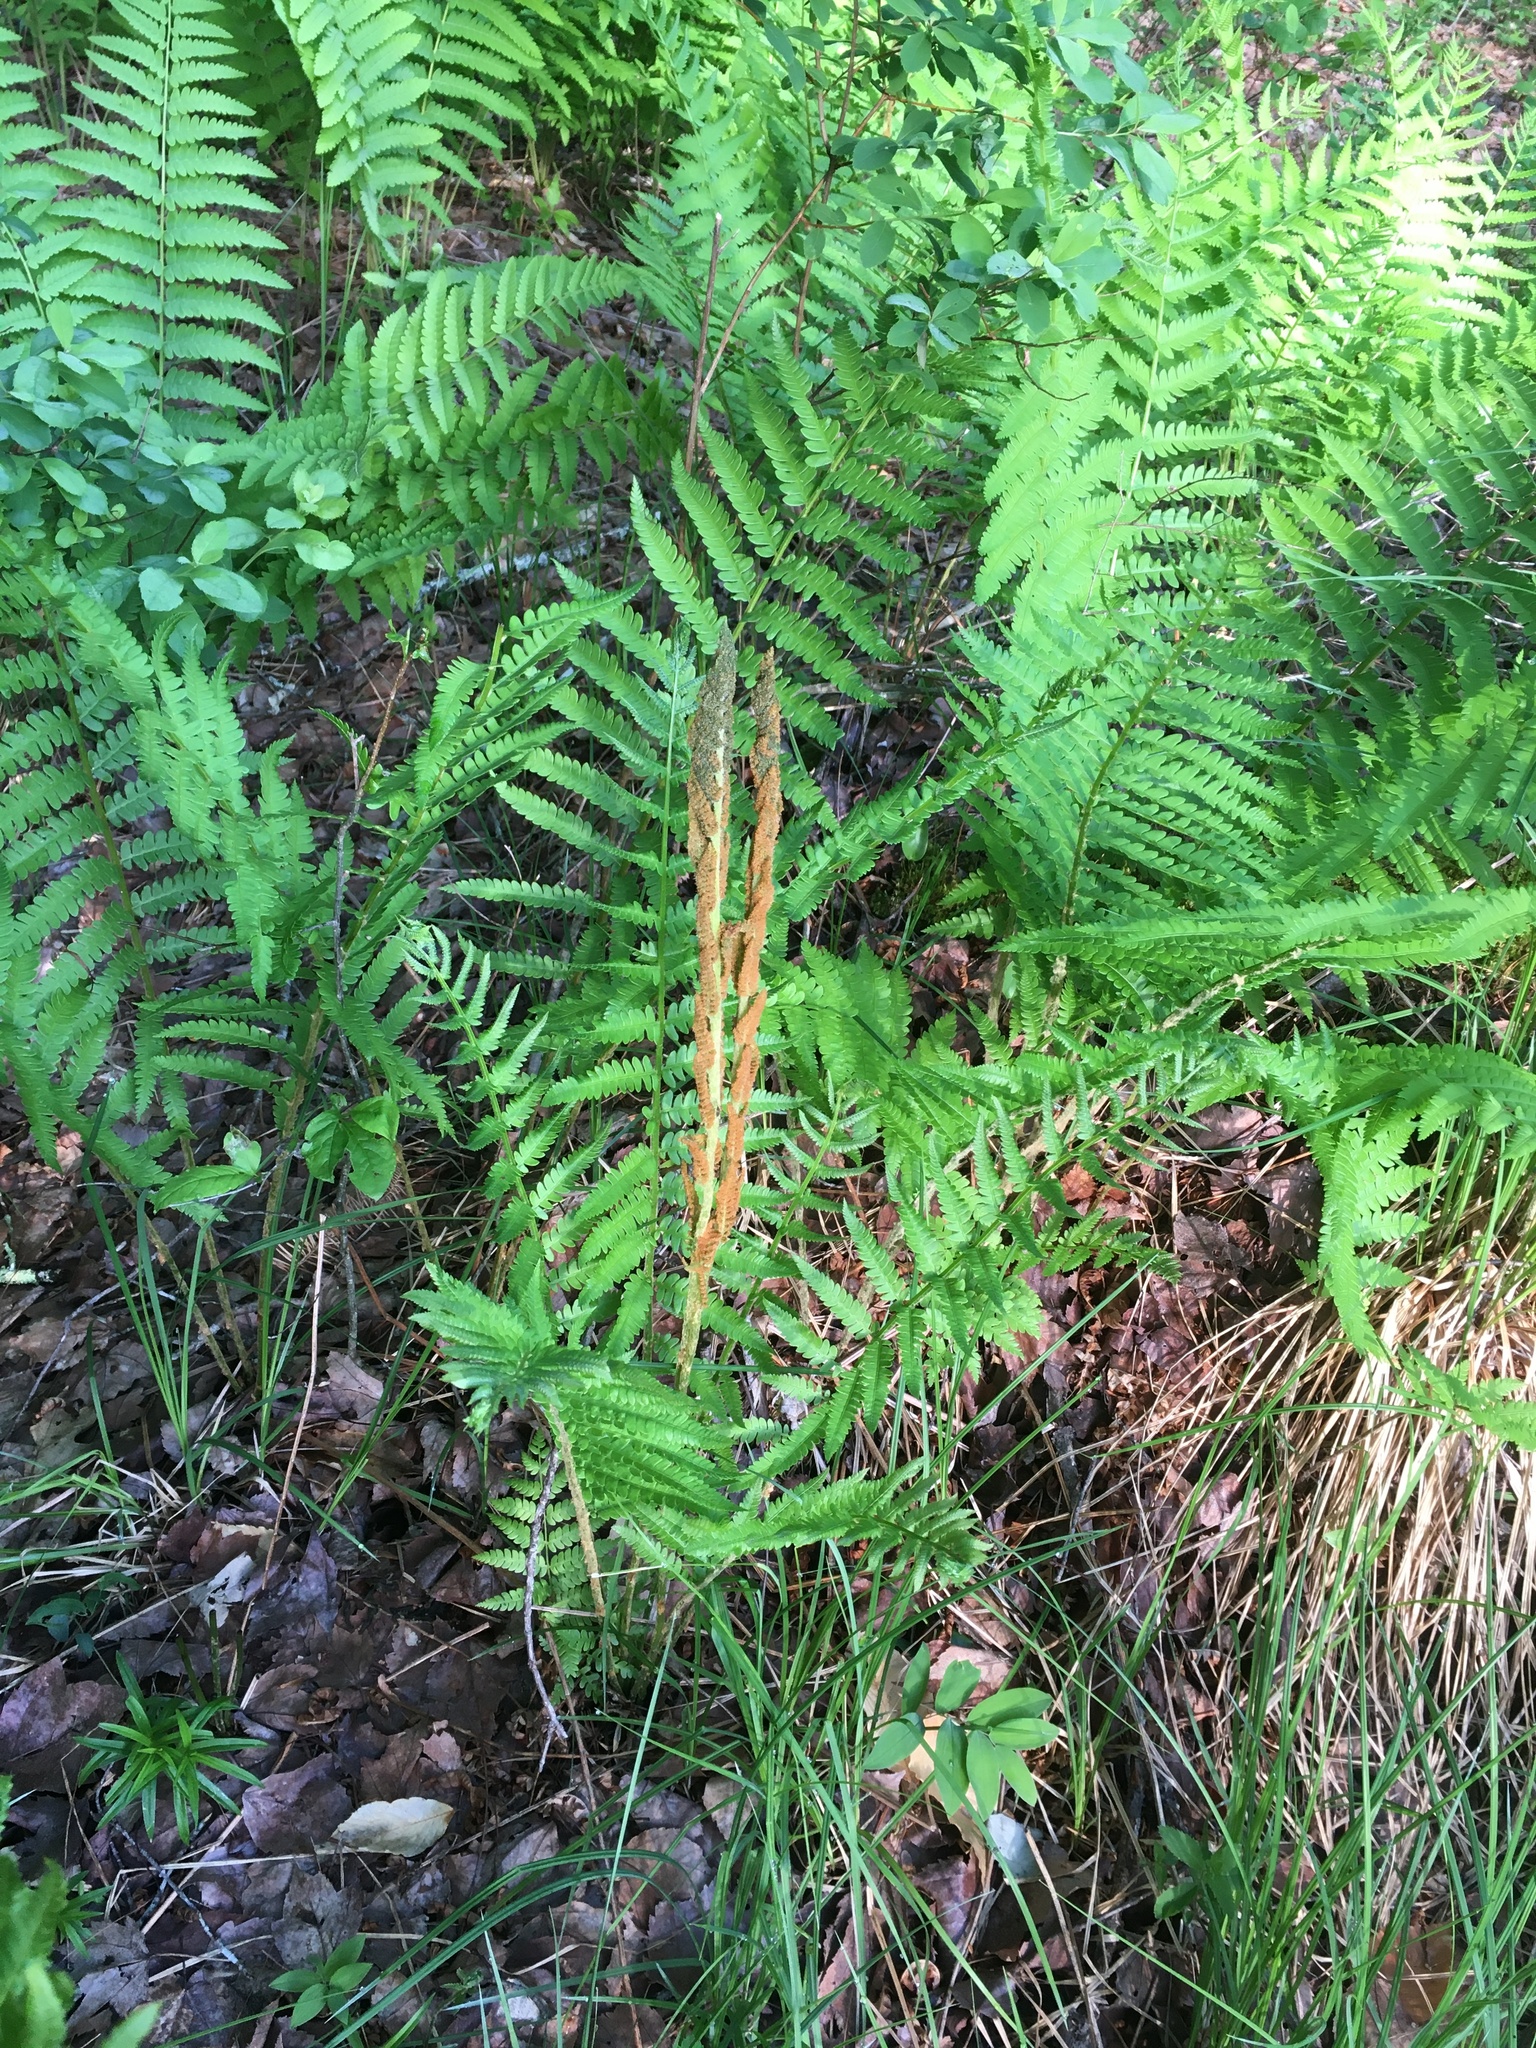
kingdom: Plantae
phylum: Tracheophyta
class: Polypodiopsida
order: Osmundales
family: Osmundaceae
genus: Osmundastrum
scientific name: Osmundastrum cinnamomeum
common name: Cinnamon fern
